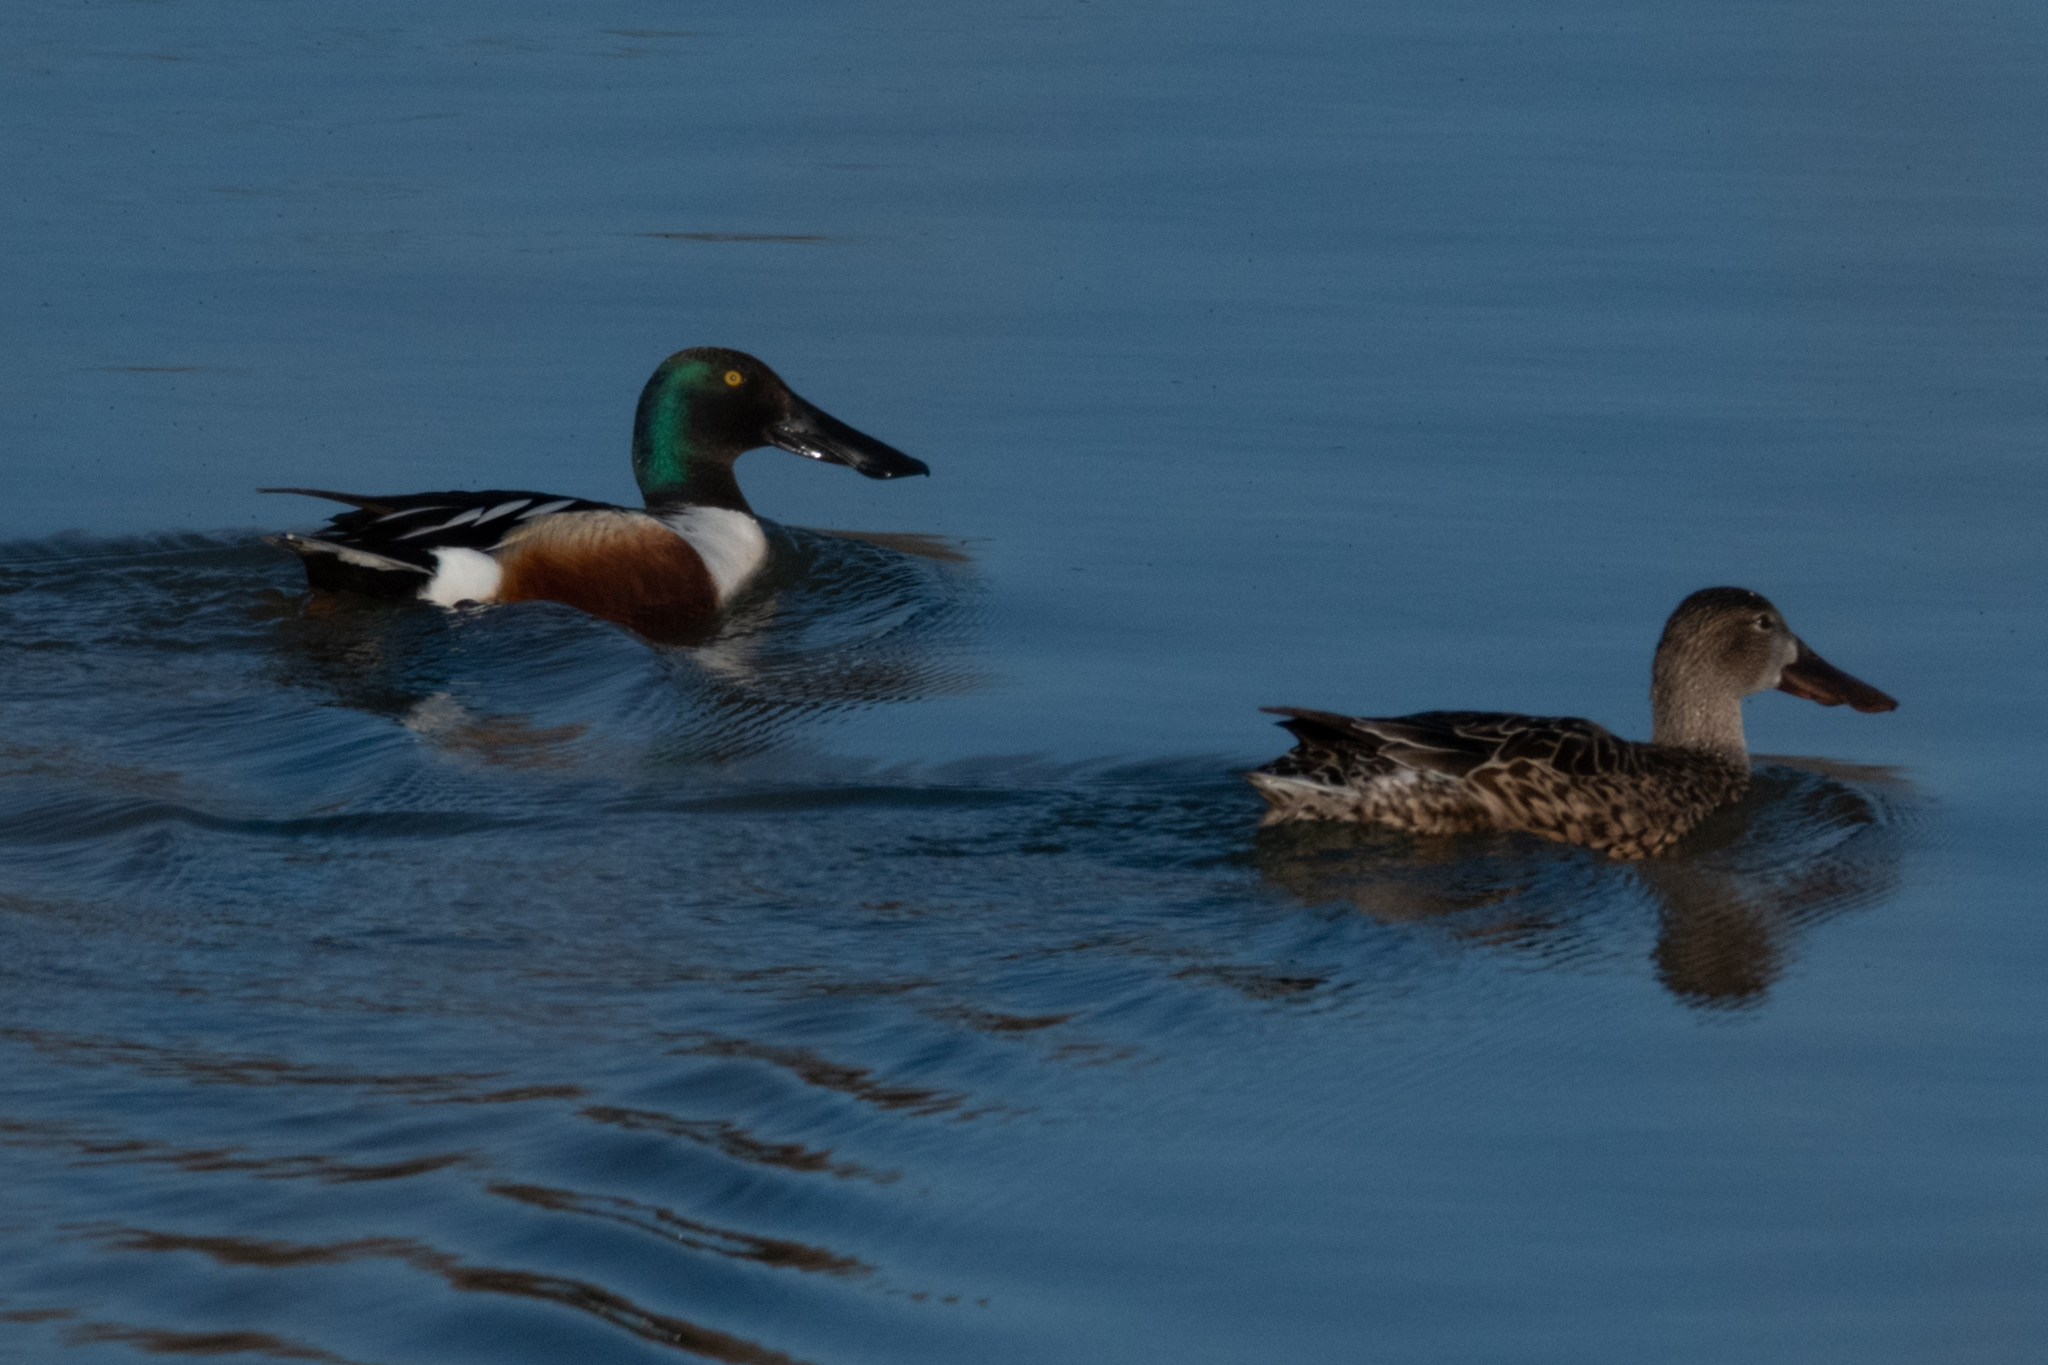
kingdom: Animalia
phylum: Chordata
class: Aves
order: Anseriformes
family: Anatidae
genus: Spatula
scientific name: Spatula clypeata
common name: Northern shoveler
